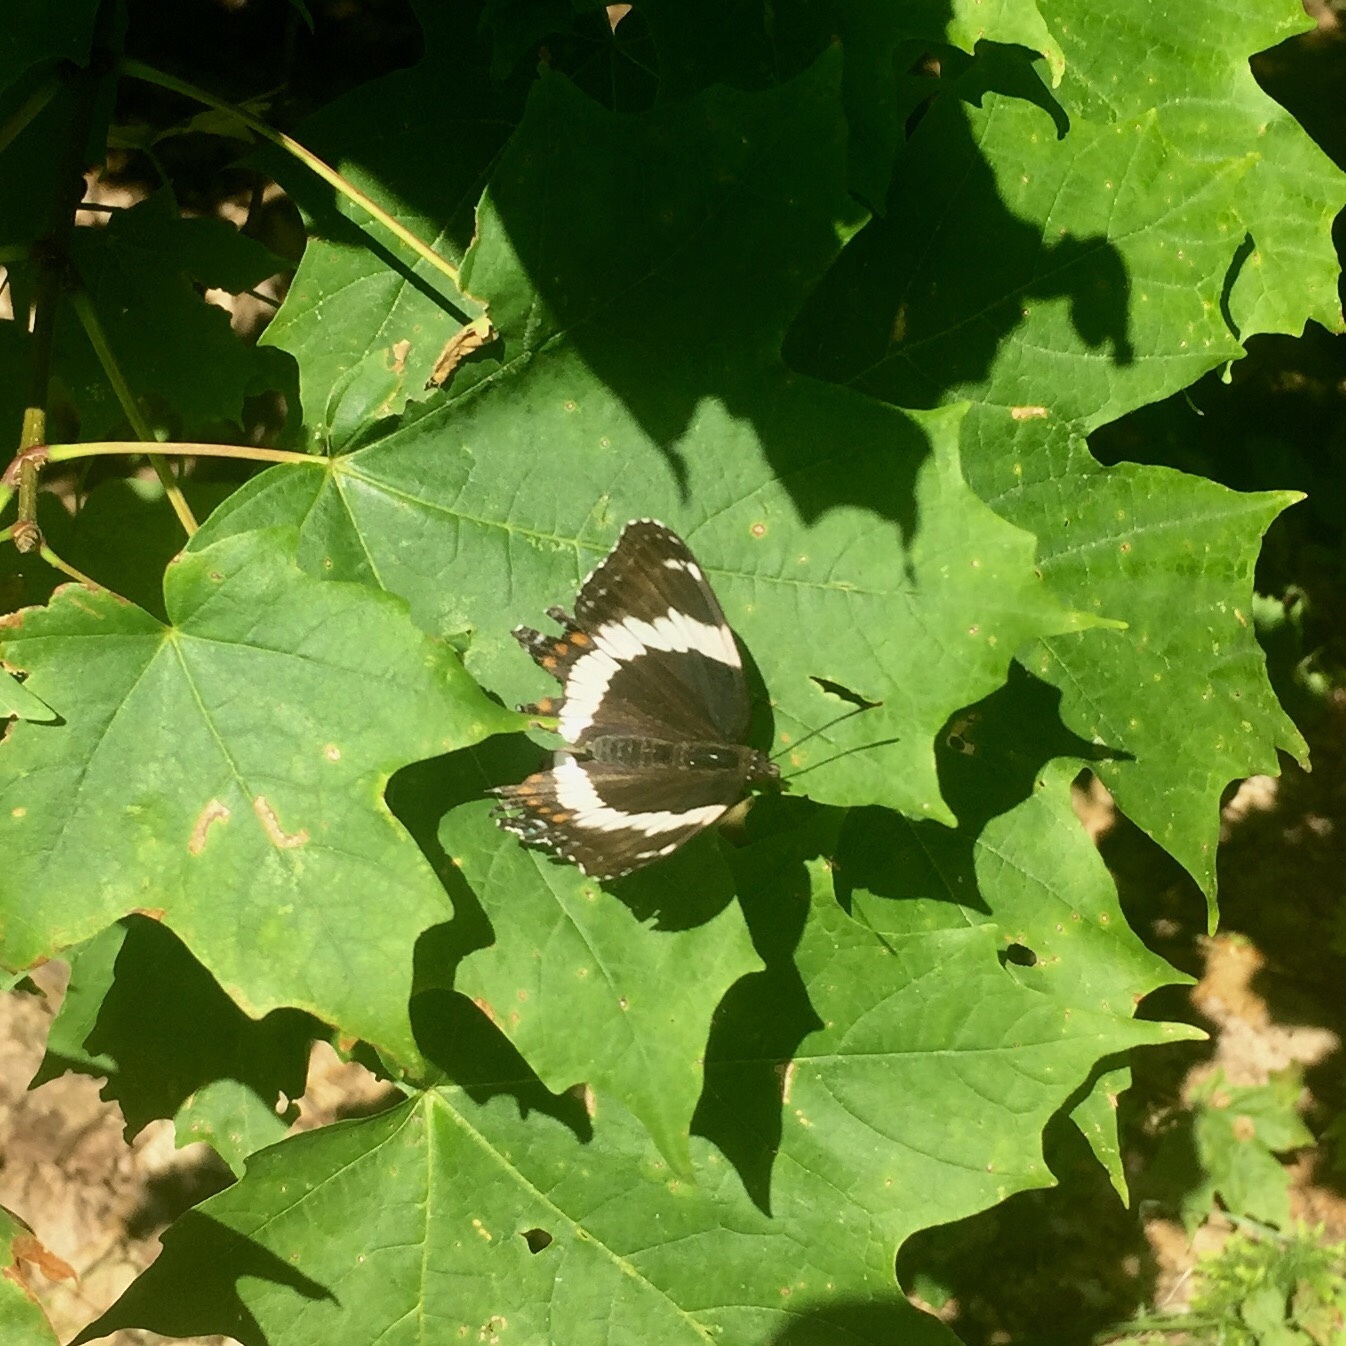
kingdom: Animalia
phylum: Arthropoda
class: Insecta
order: Lepidoptera
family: Nymphalidae
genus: Limenitis
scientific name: Limenitis arthemis
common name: Red-spotted admiral
